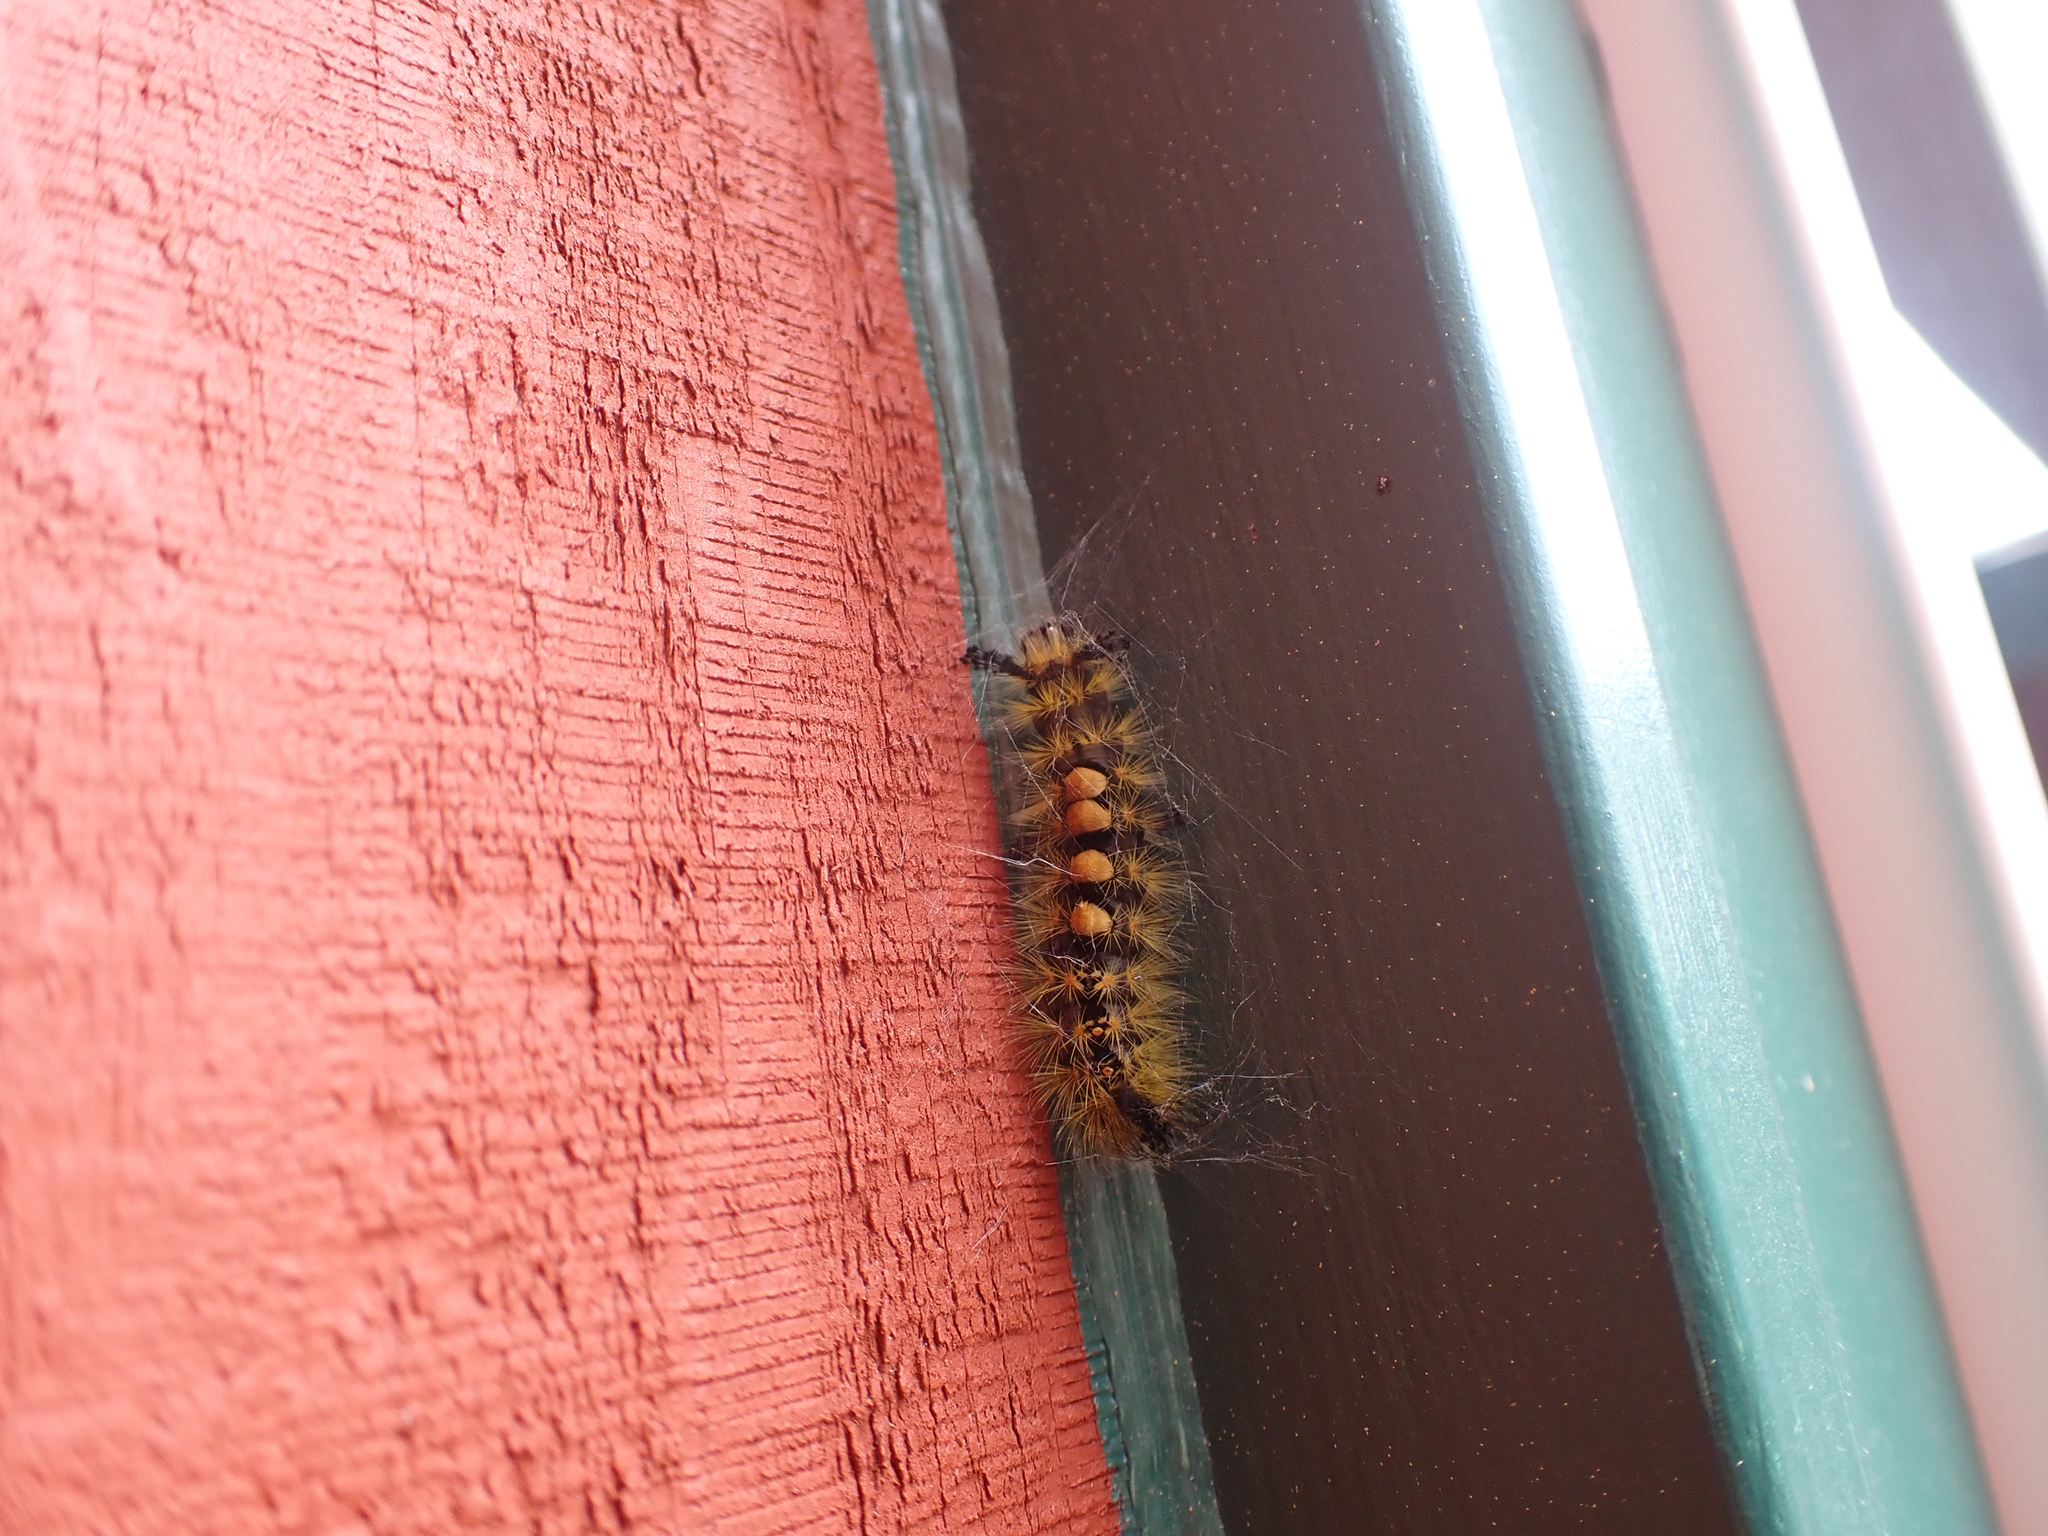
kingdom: Animalia
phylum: Arthropoda
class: Insecta
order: Lepidoptera
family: Erebidae
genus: Orgyia
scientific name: Orgyia antiqua
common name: Vapourer
